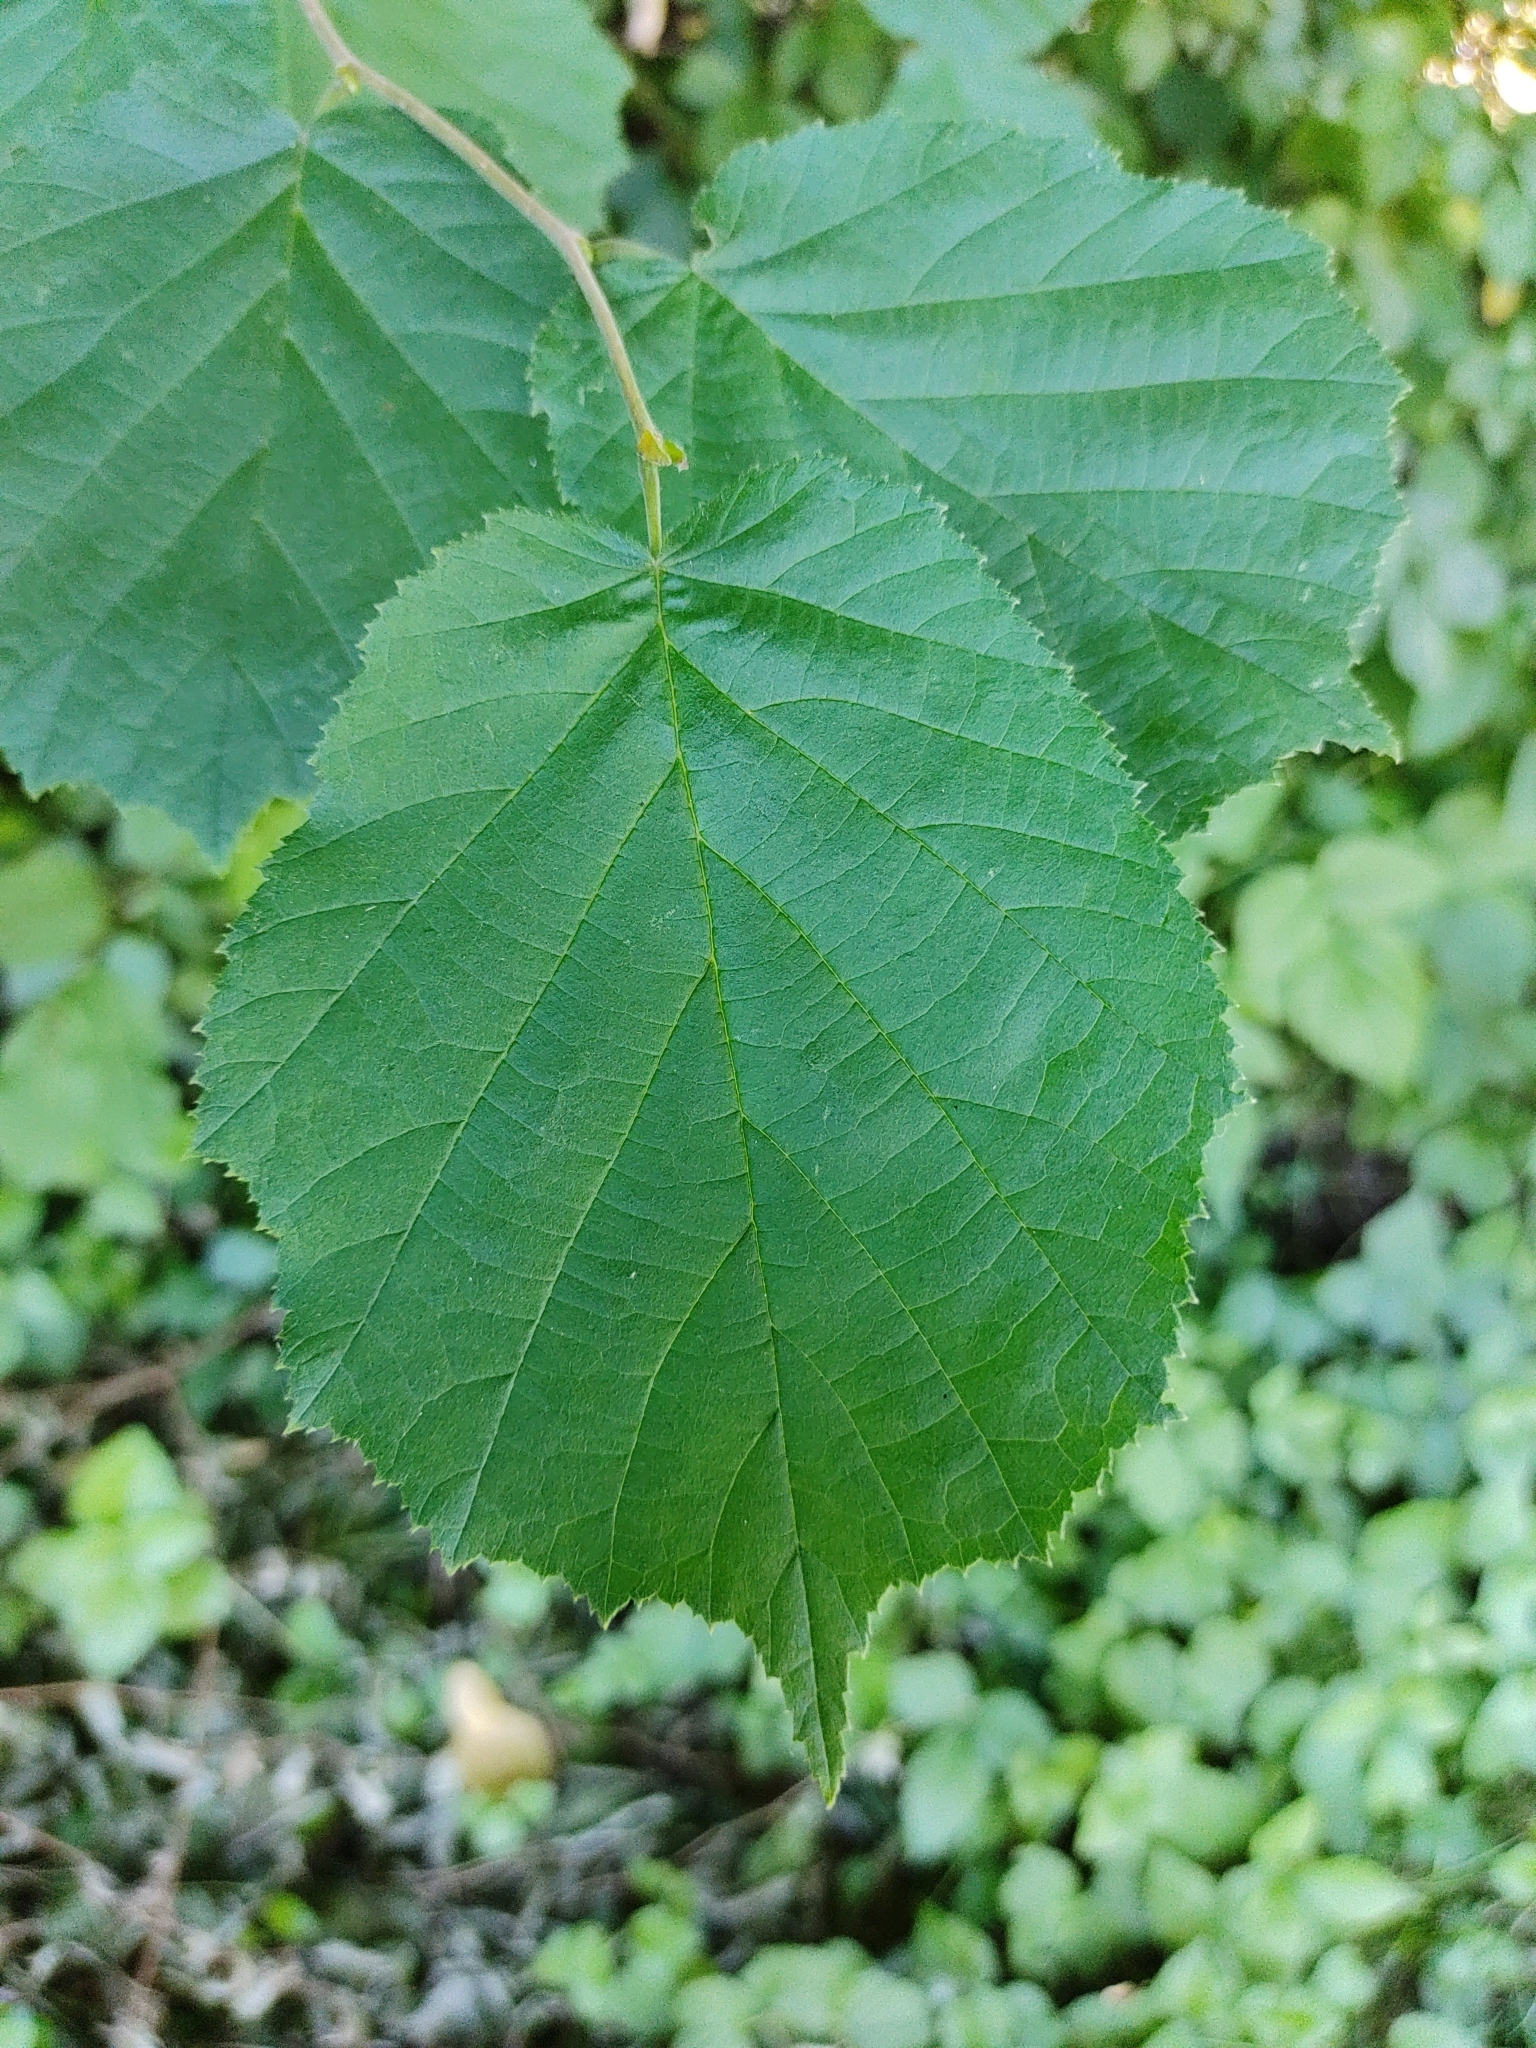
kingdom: Plantae
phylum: Tracheophyta
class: Magnoliopsida
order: Fagales
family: Betulaceae
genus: Corylus
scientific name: Corylus avellana
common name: European hazel
